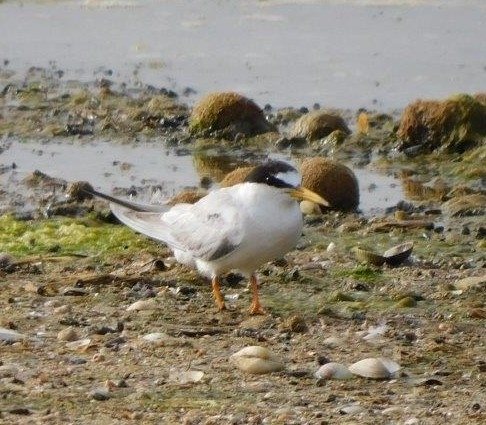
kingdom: Animalia
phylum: Chordata
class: Aves
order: Charadriiformes
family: Laridae
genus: Sternula
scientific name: Sternula albifrons
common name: Little tern
